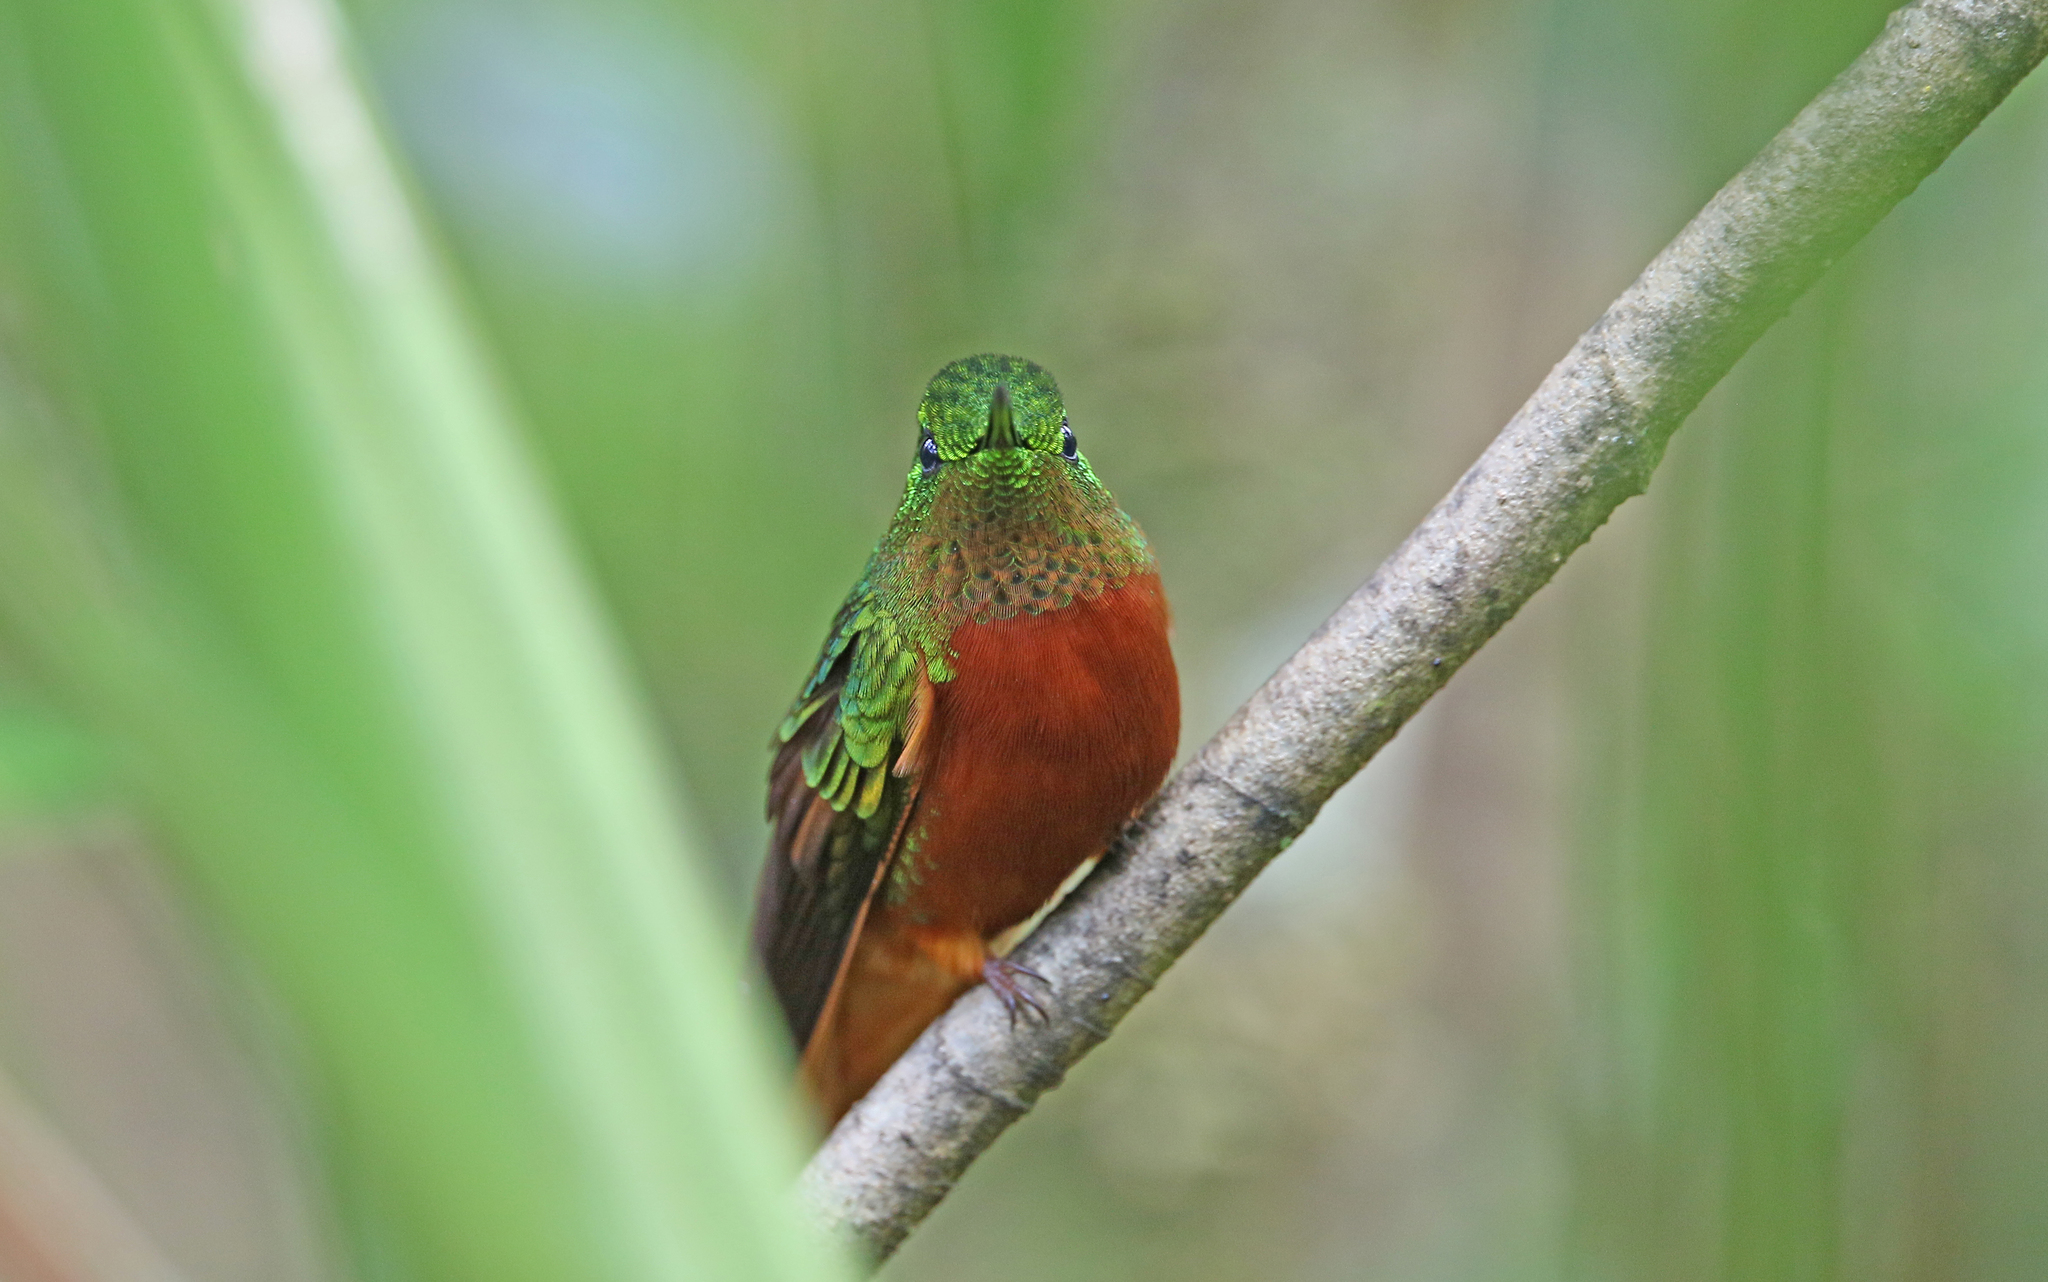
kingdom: Animalia
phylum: Chordata
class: Aves
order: Apodiformes
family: Trochilidae
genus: Boissonneaua
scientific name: Boissonneaua matthewsii
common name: Chestnut-breasted coronet
